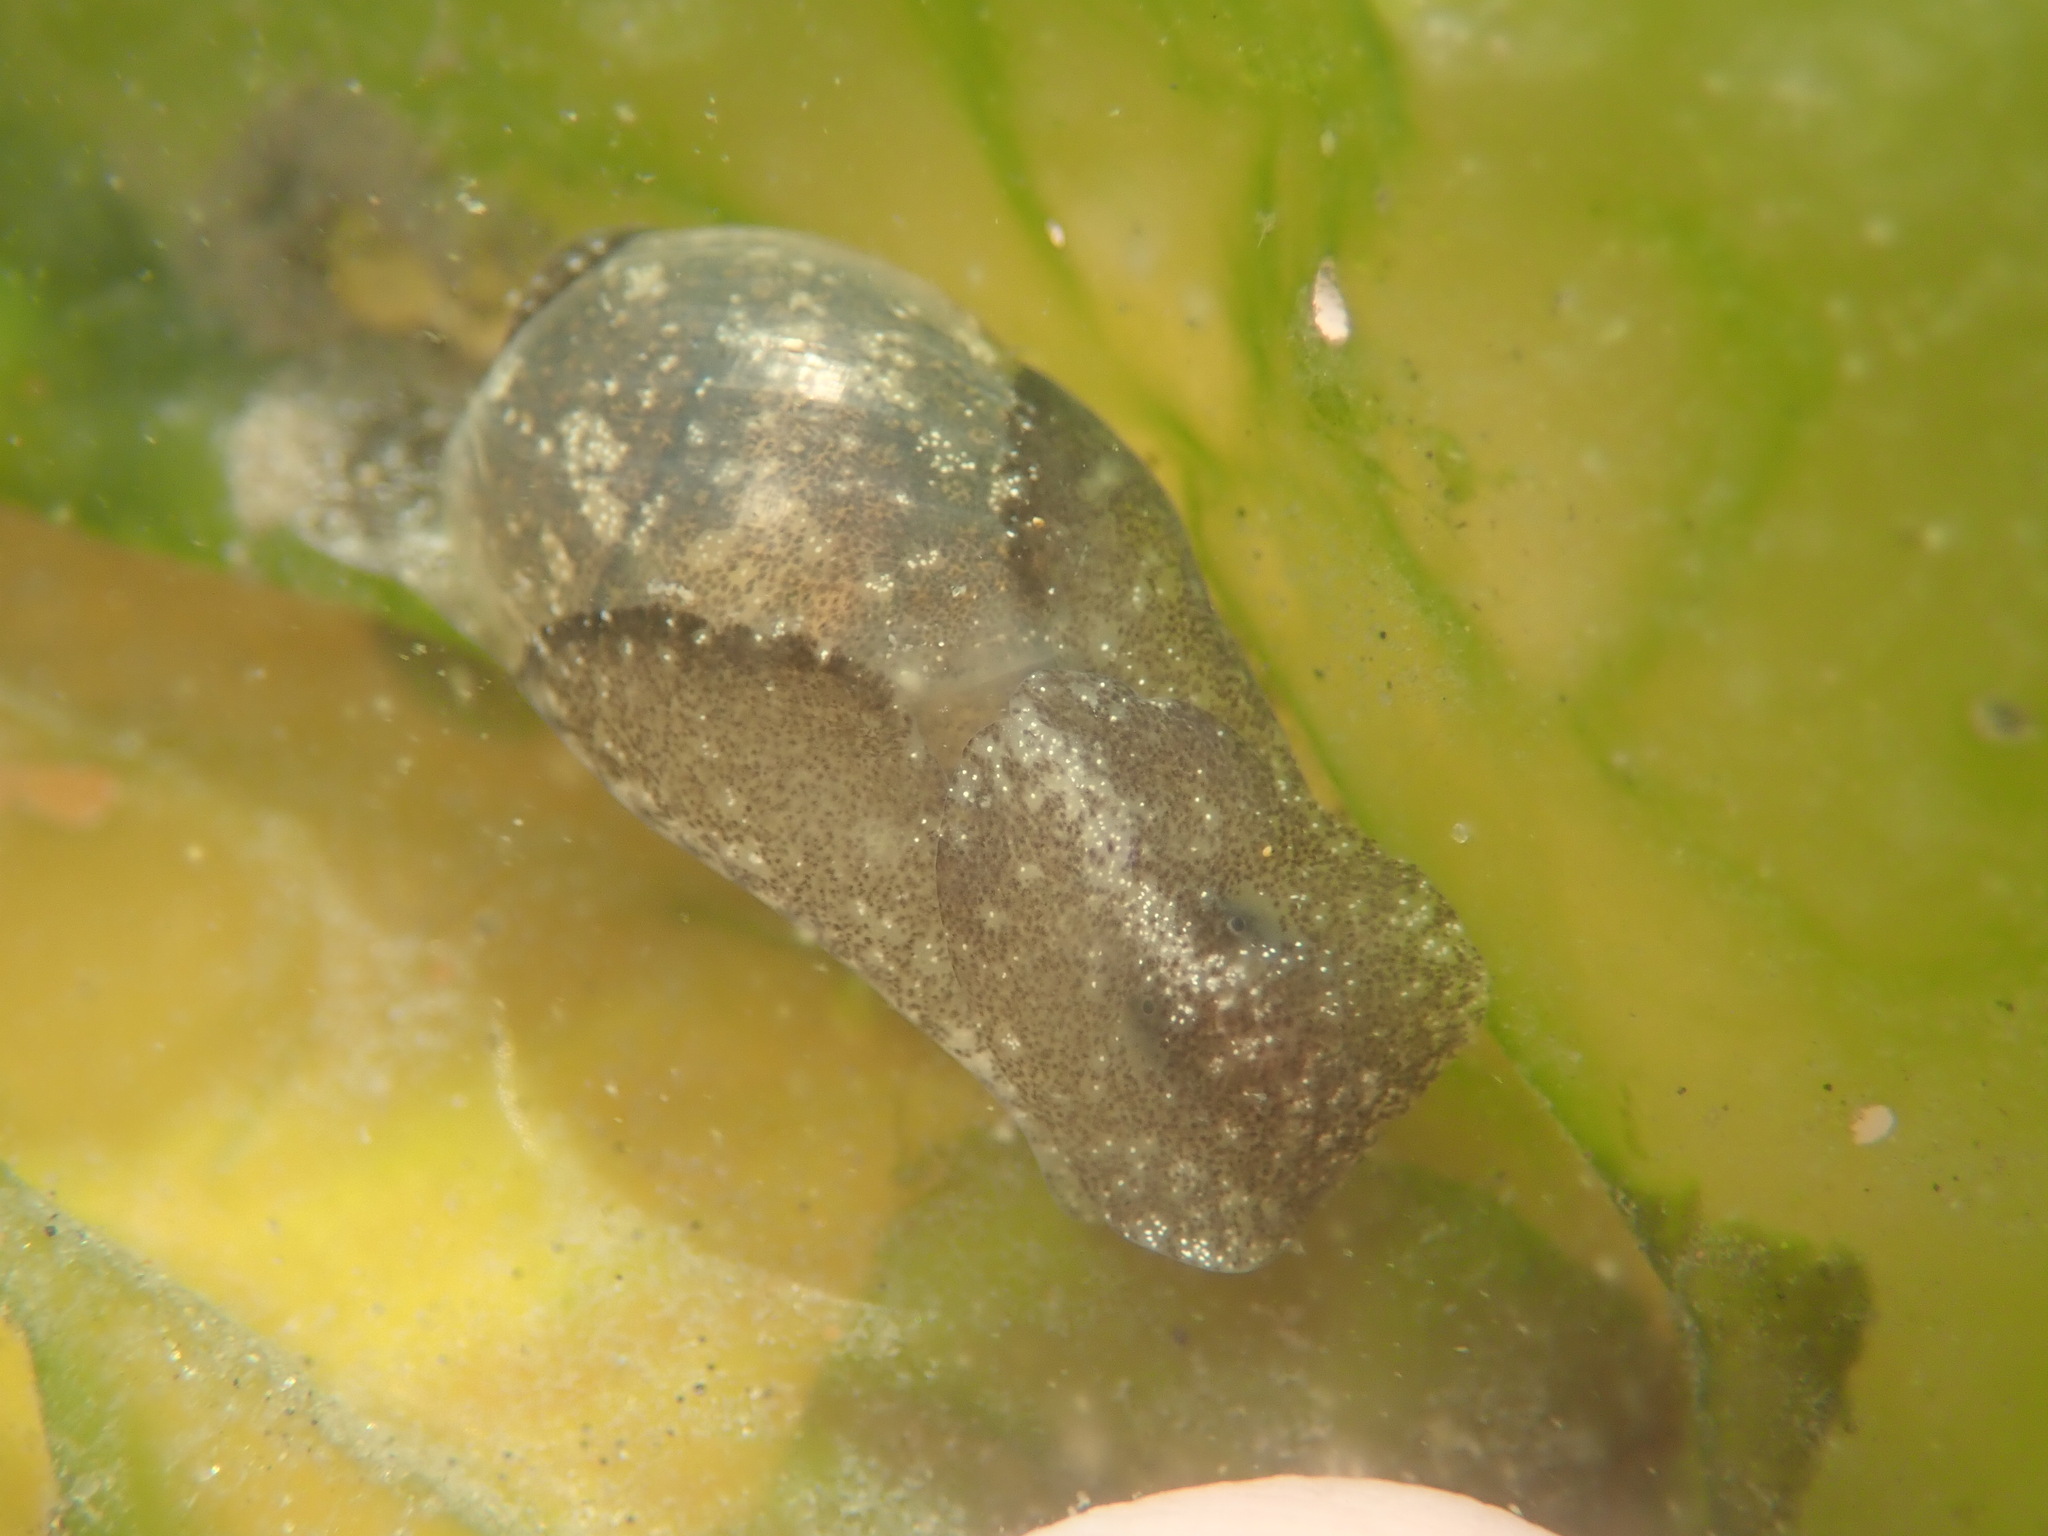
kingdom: Animalia
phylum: Mollusca
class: Gastropoda
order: Cephalaspidea
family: Haminoeidae
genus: Haminoea
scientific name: Haminoea vesicula
